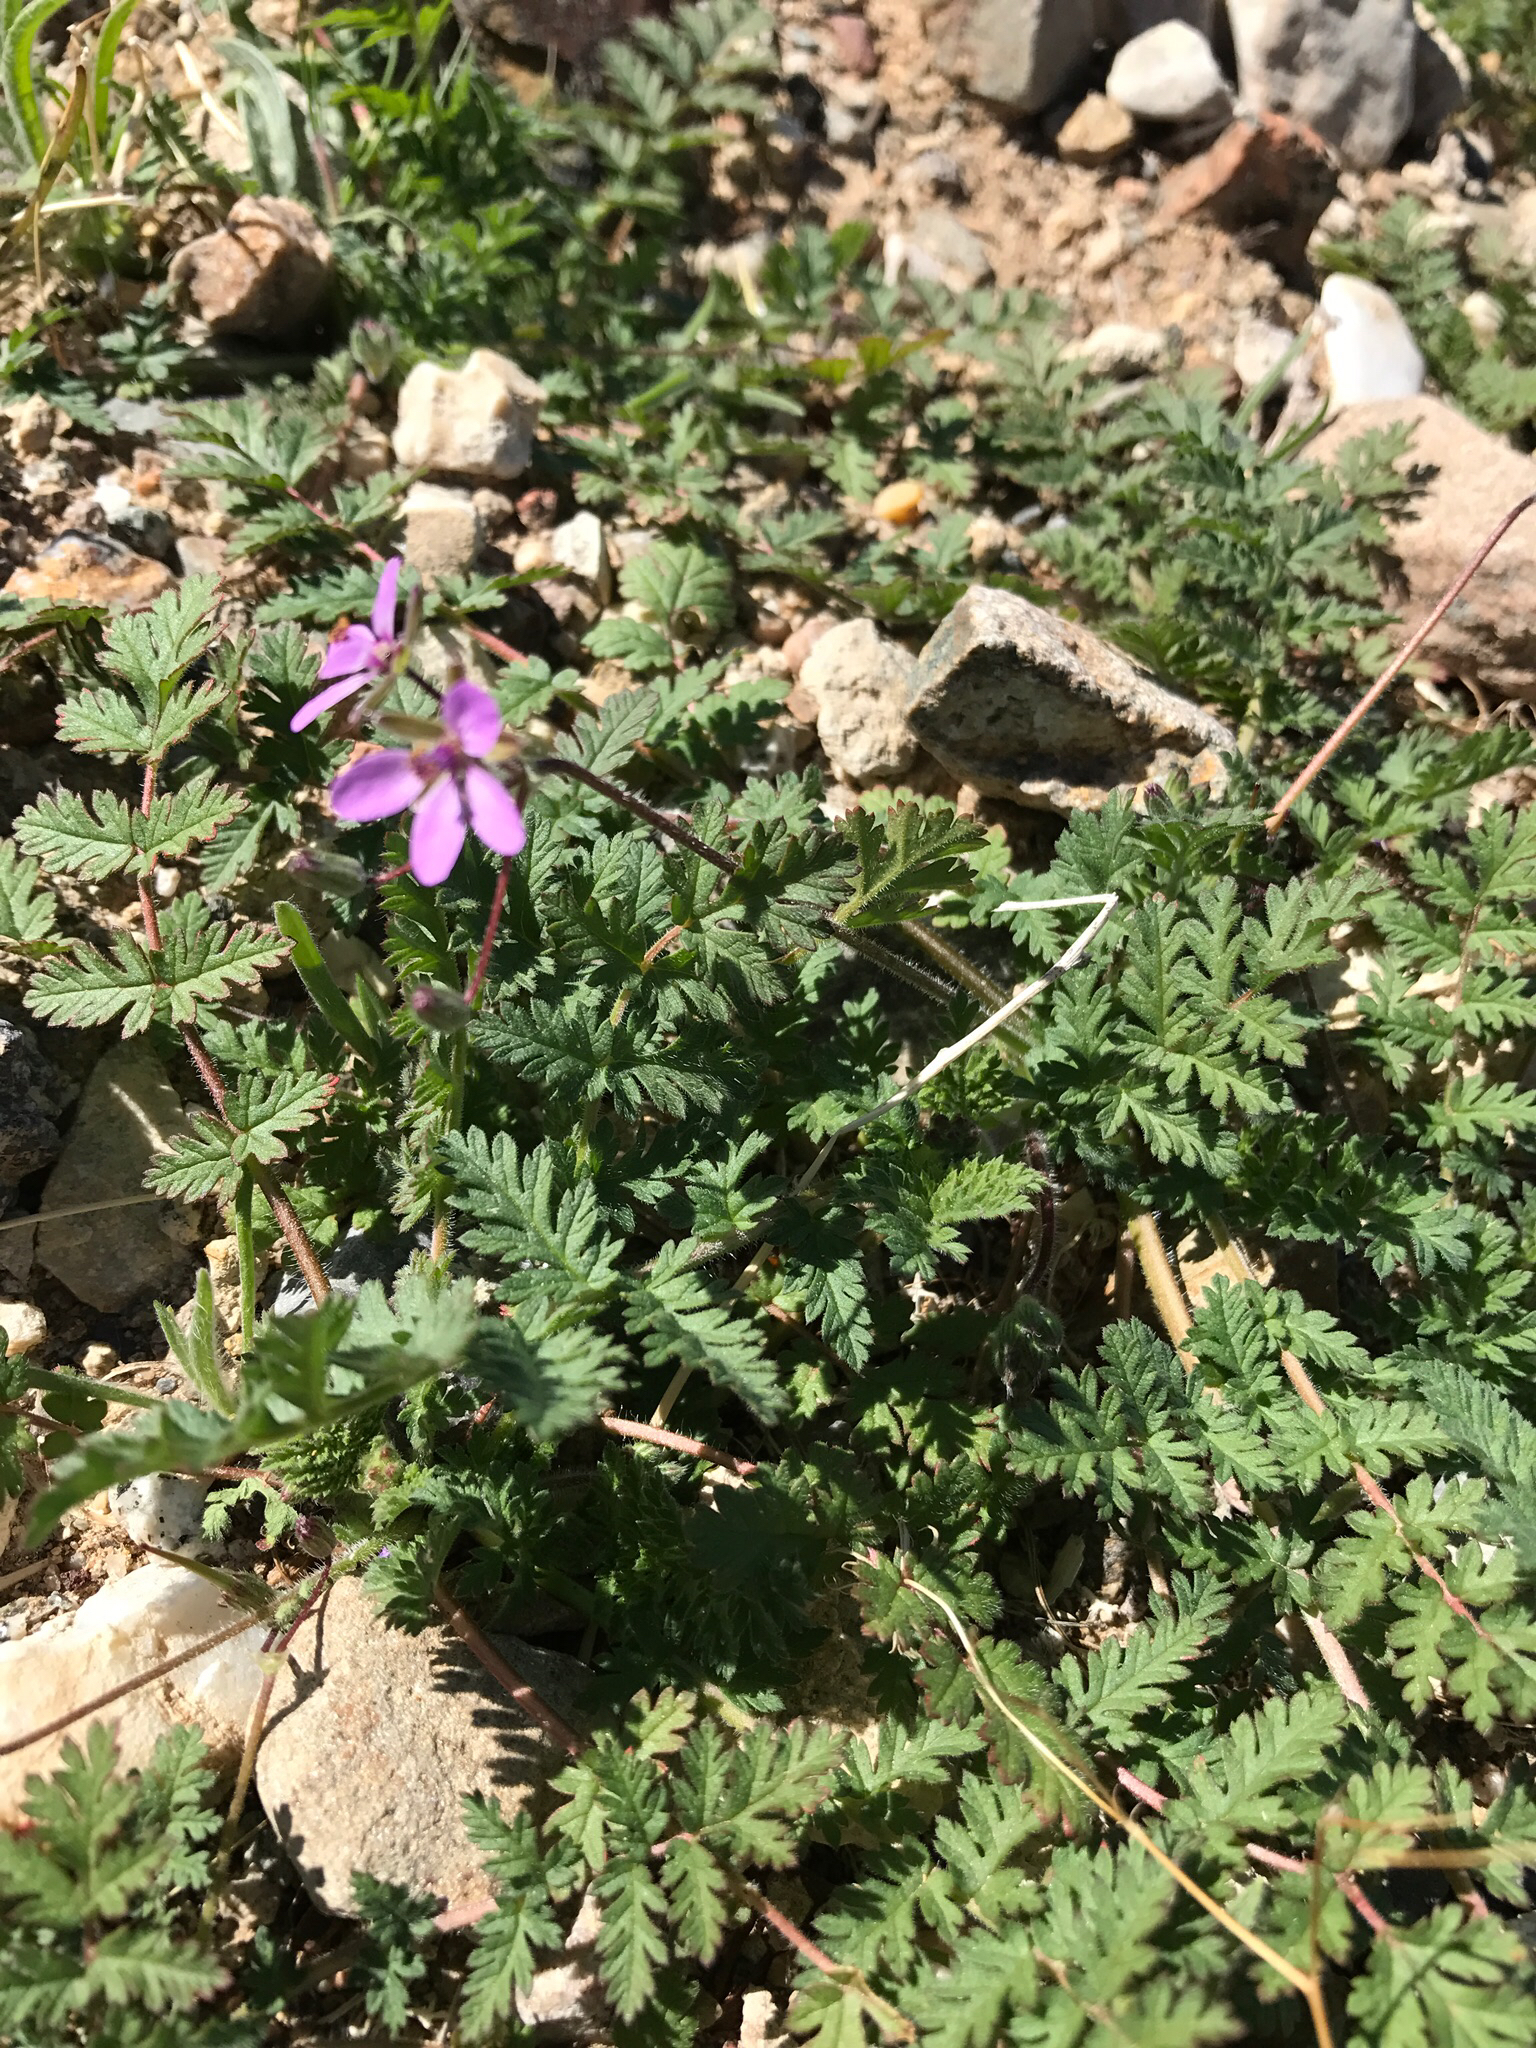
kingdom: Plantae
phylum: Tracheophyta
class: Magnoliopsida
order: Geraniales
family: Geraniaceae
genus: Erodium
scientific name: Erodium cicutarium
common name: Common stork's-bill
